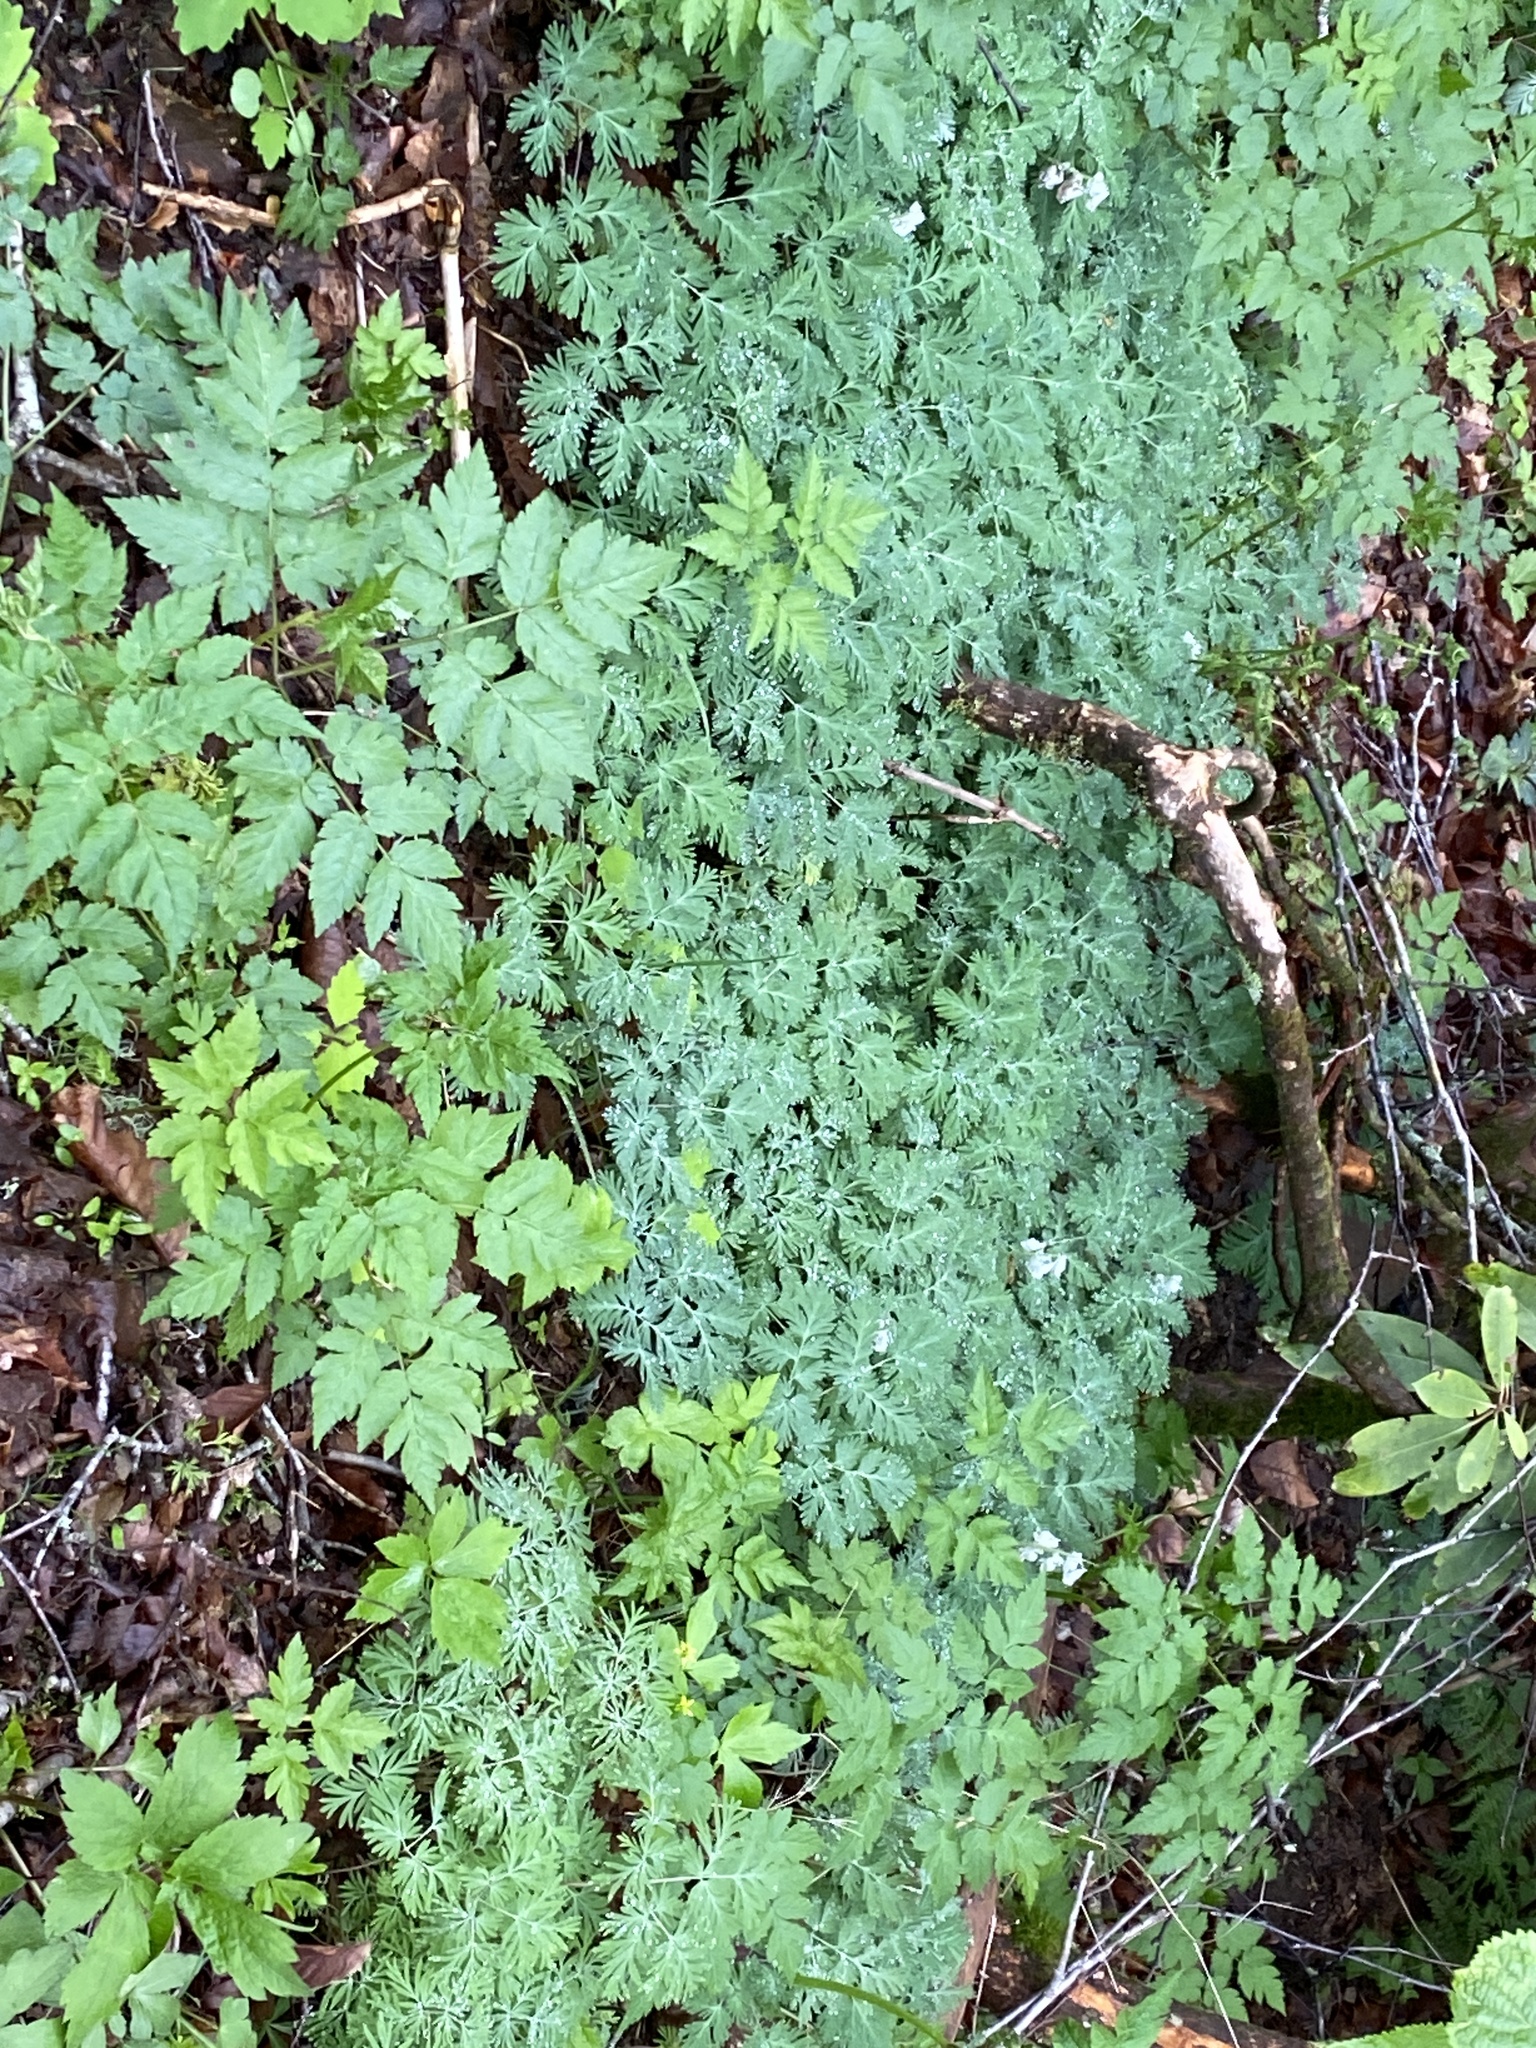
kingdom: Plantae
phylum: Tracheophyta
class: Magnoliopsida
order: Ranunculales
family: Papaveraceae
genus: Dicentra
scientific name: Dicentra canadensis
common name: Squirrel-corn
